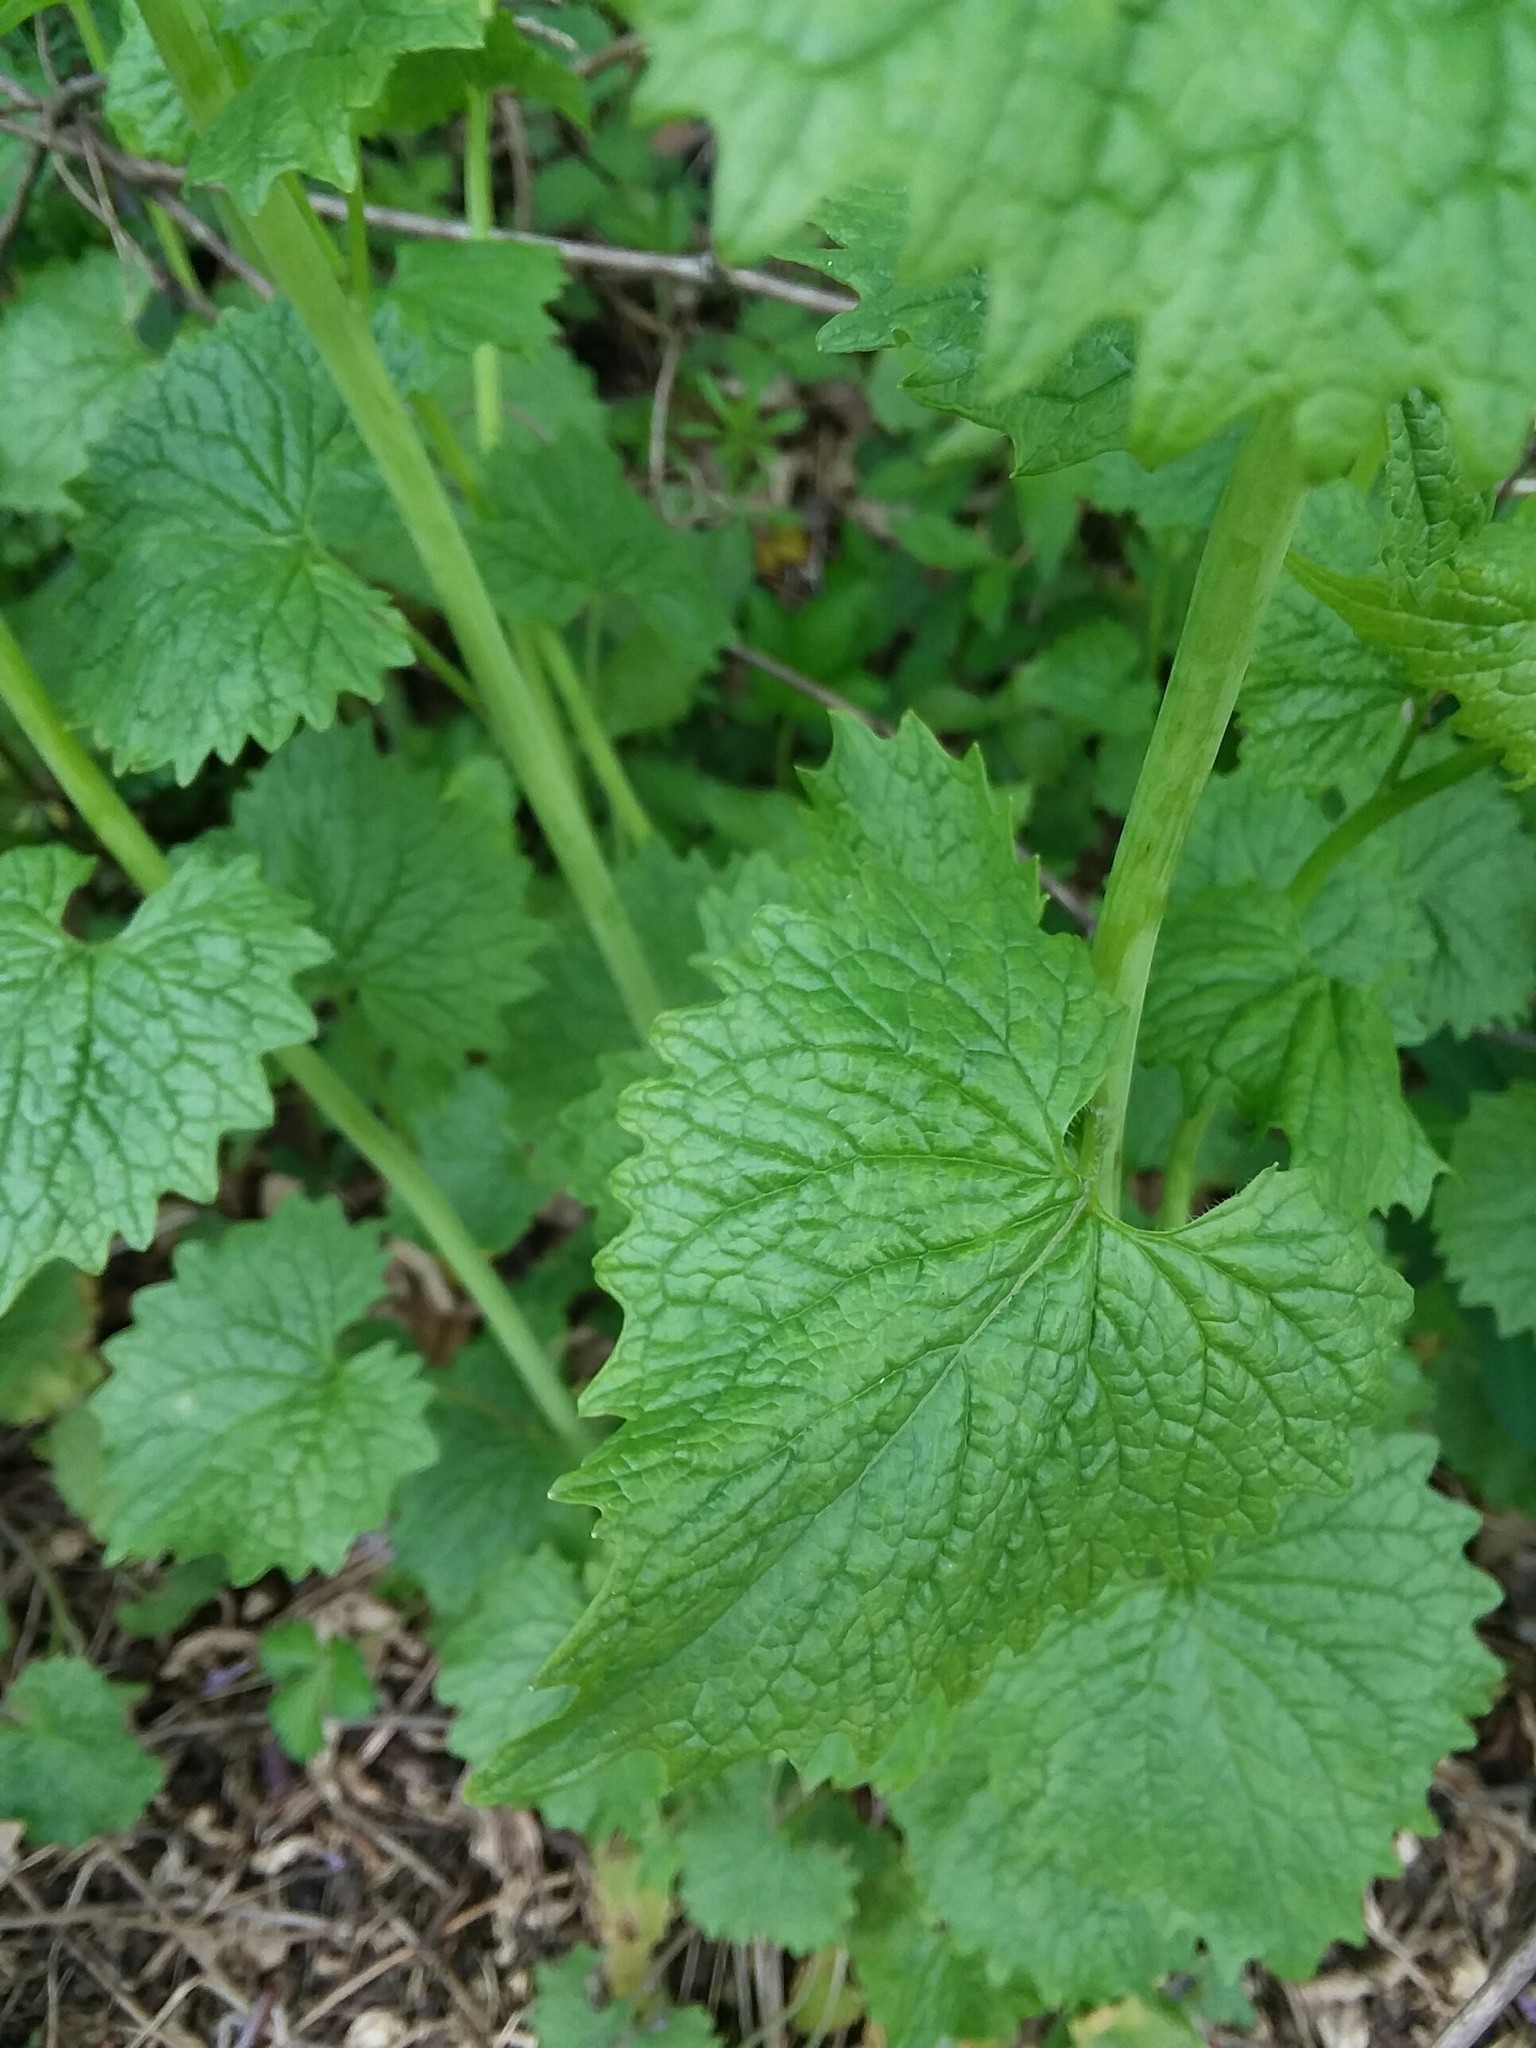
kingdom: Plantae
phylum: Tracheophyta
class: Magnoliopsida
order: Brassicales
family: Brassicaceae
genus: Alliaria
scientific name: Alliaria petiolata
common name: Garlic mustard
